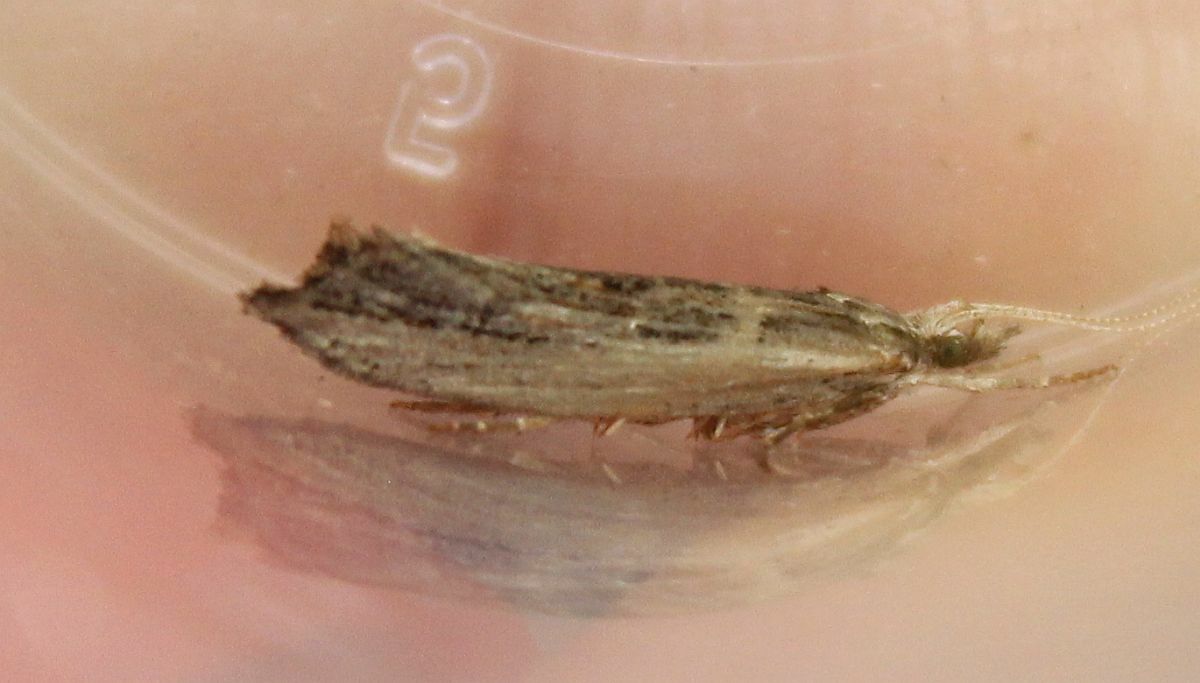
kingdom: Animalia
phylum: Arthropoda
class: Insecta
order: Lepidoptera
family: Ypsolophidae
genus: Ypsolopha
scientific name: Ypsolopha scabrella
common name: Wainscot smudge
